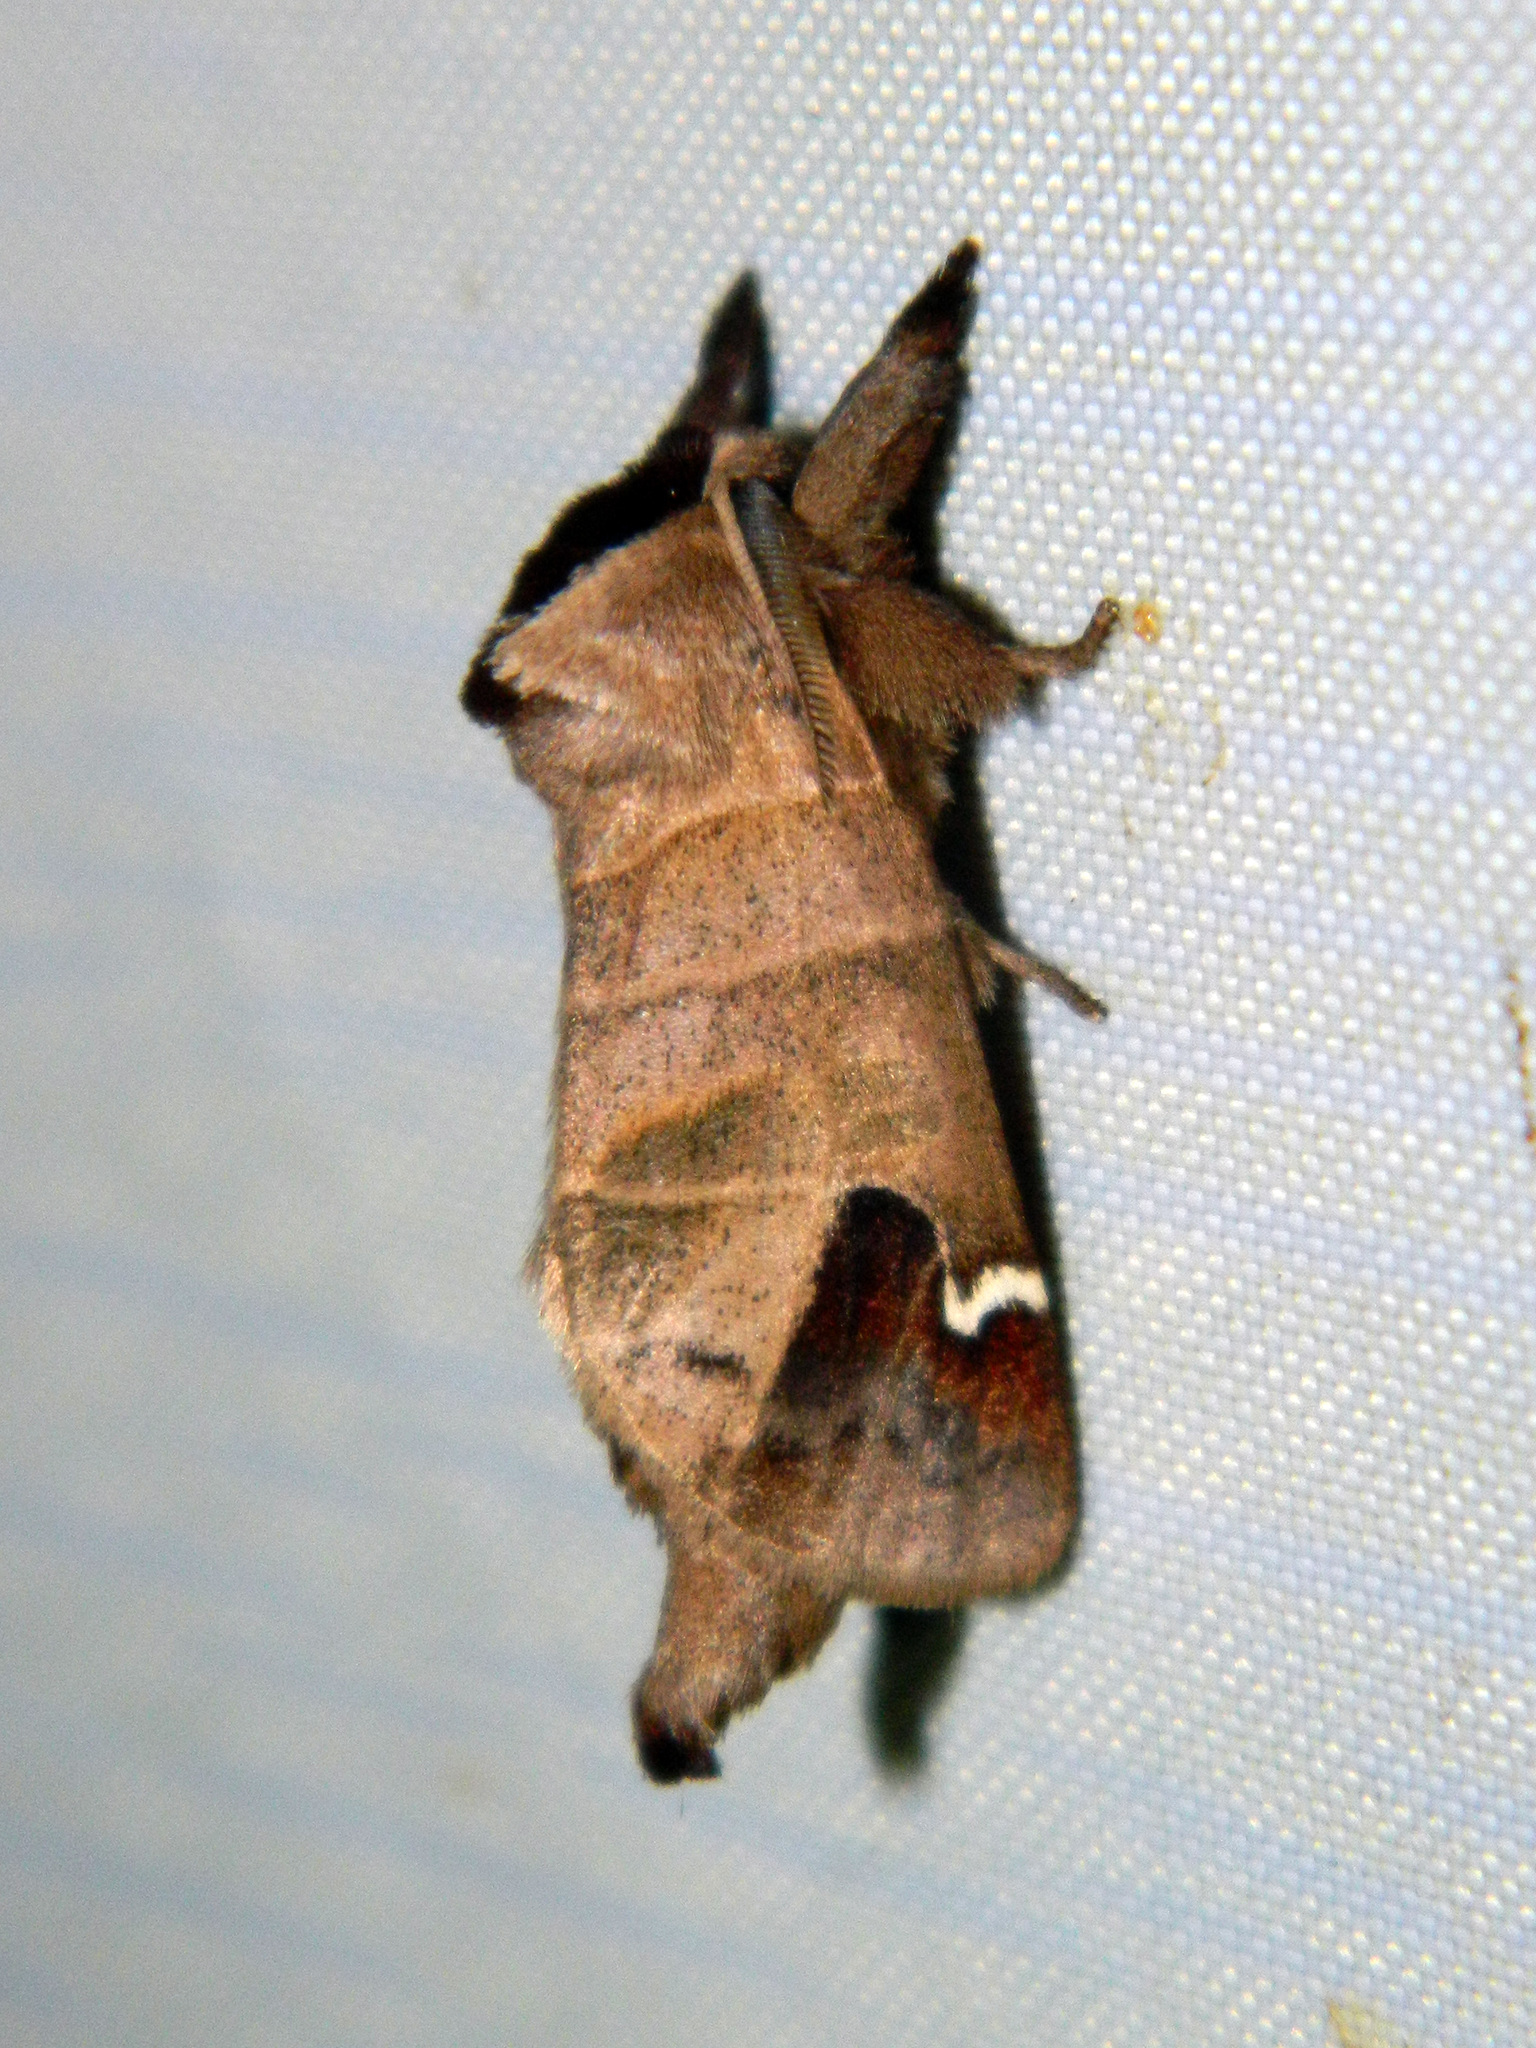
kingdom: Animalia
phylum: Arthropoda
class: Insecta
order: Lepidoptera
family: Notodontidae
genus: Clostera
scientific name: Clostera albosigma
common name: Sigmoid prominent
